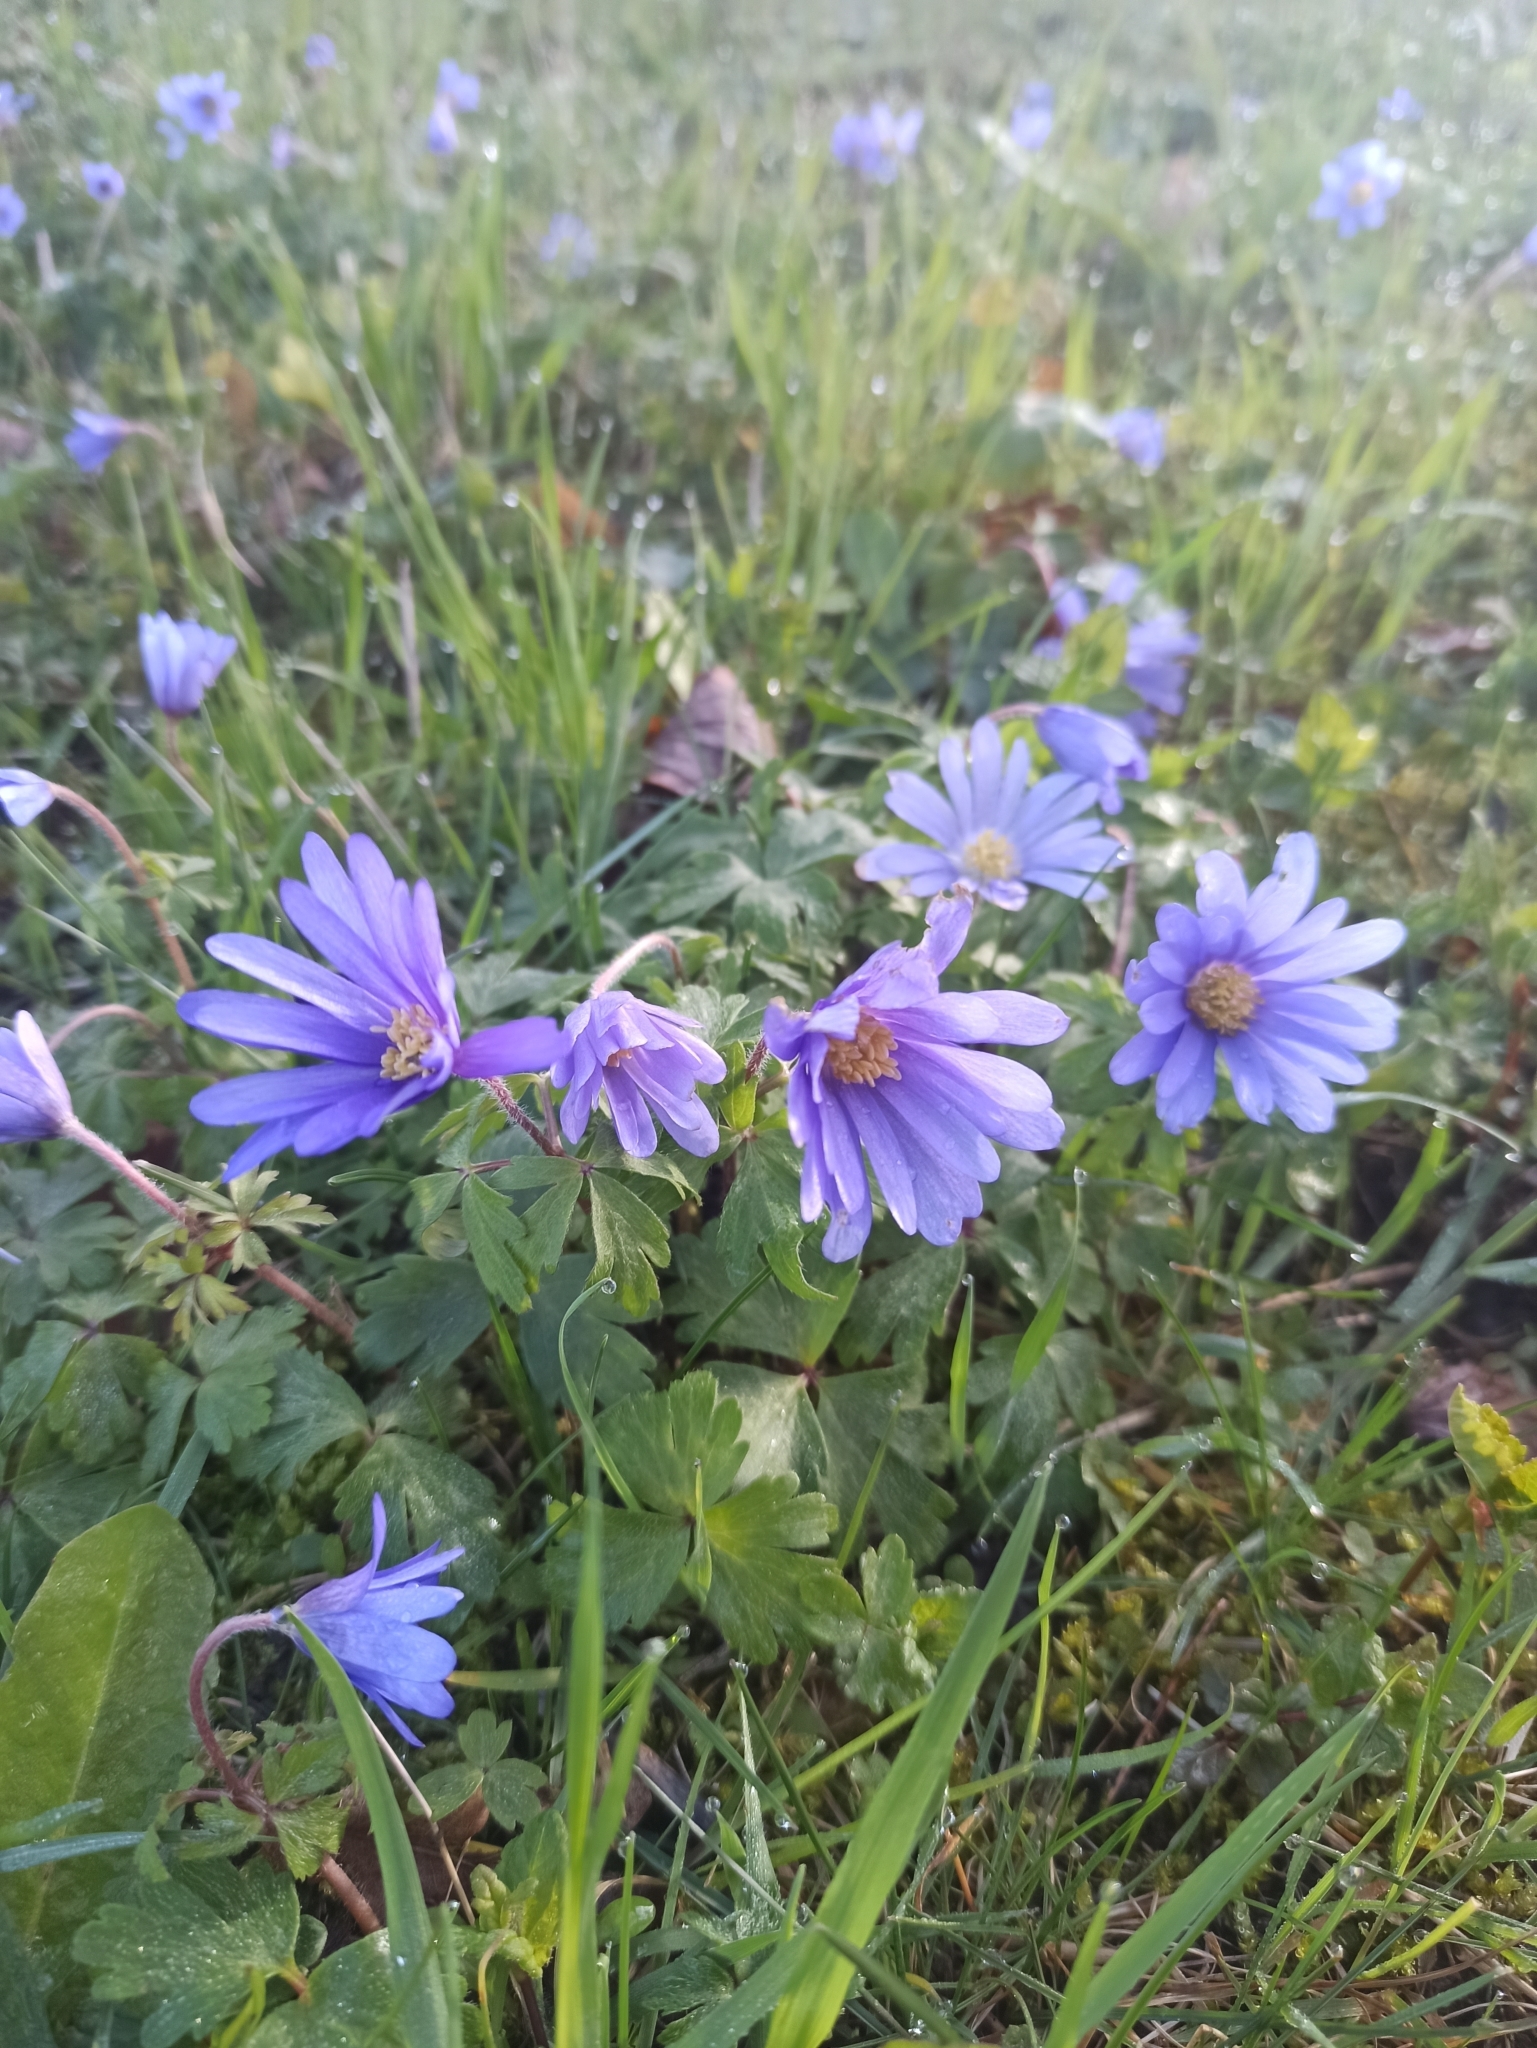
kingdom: Plantae
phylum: Tracheophyta
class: Magnoliopsida
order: Ranunculales
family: Ranunculaceae
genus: Anemone
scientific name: Anemone blanda
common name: Balkan anemone
